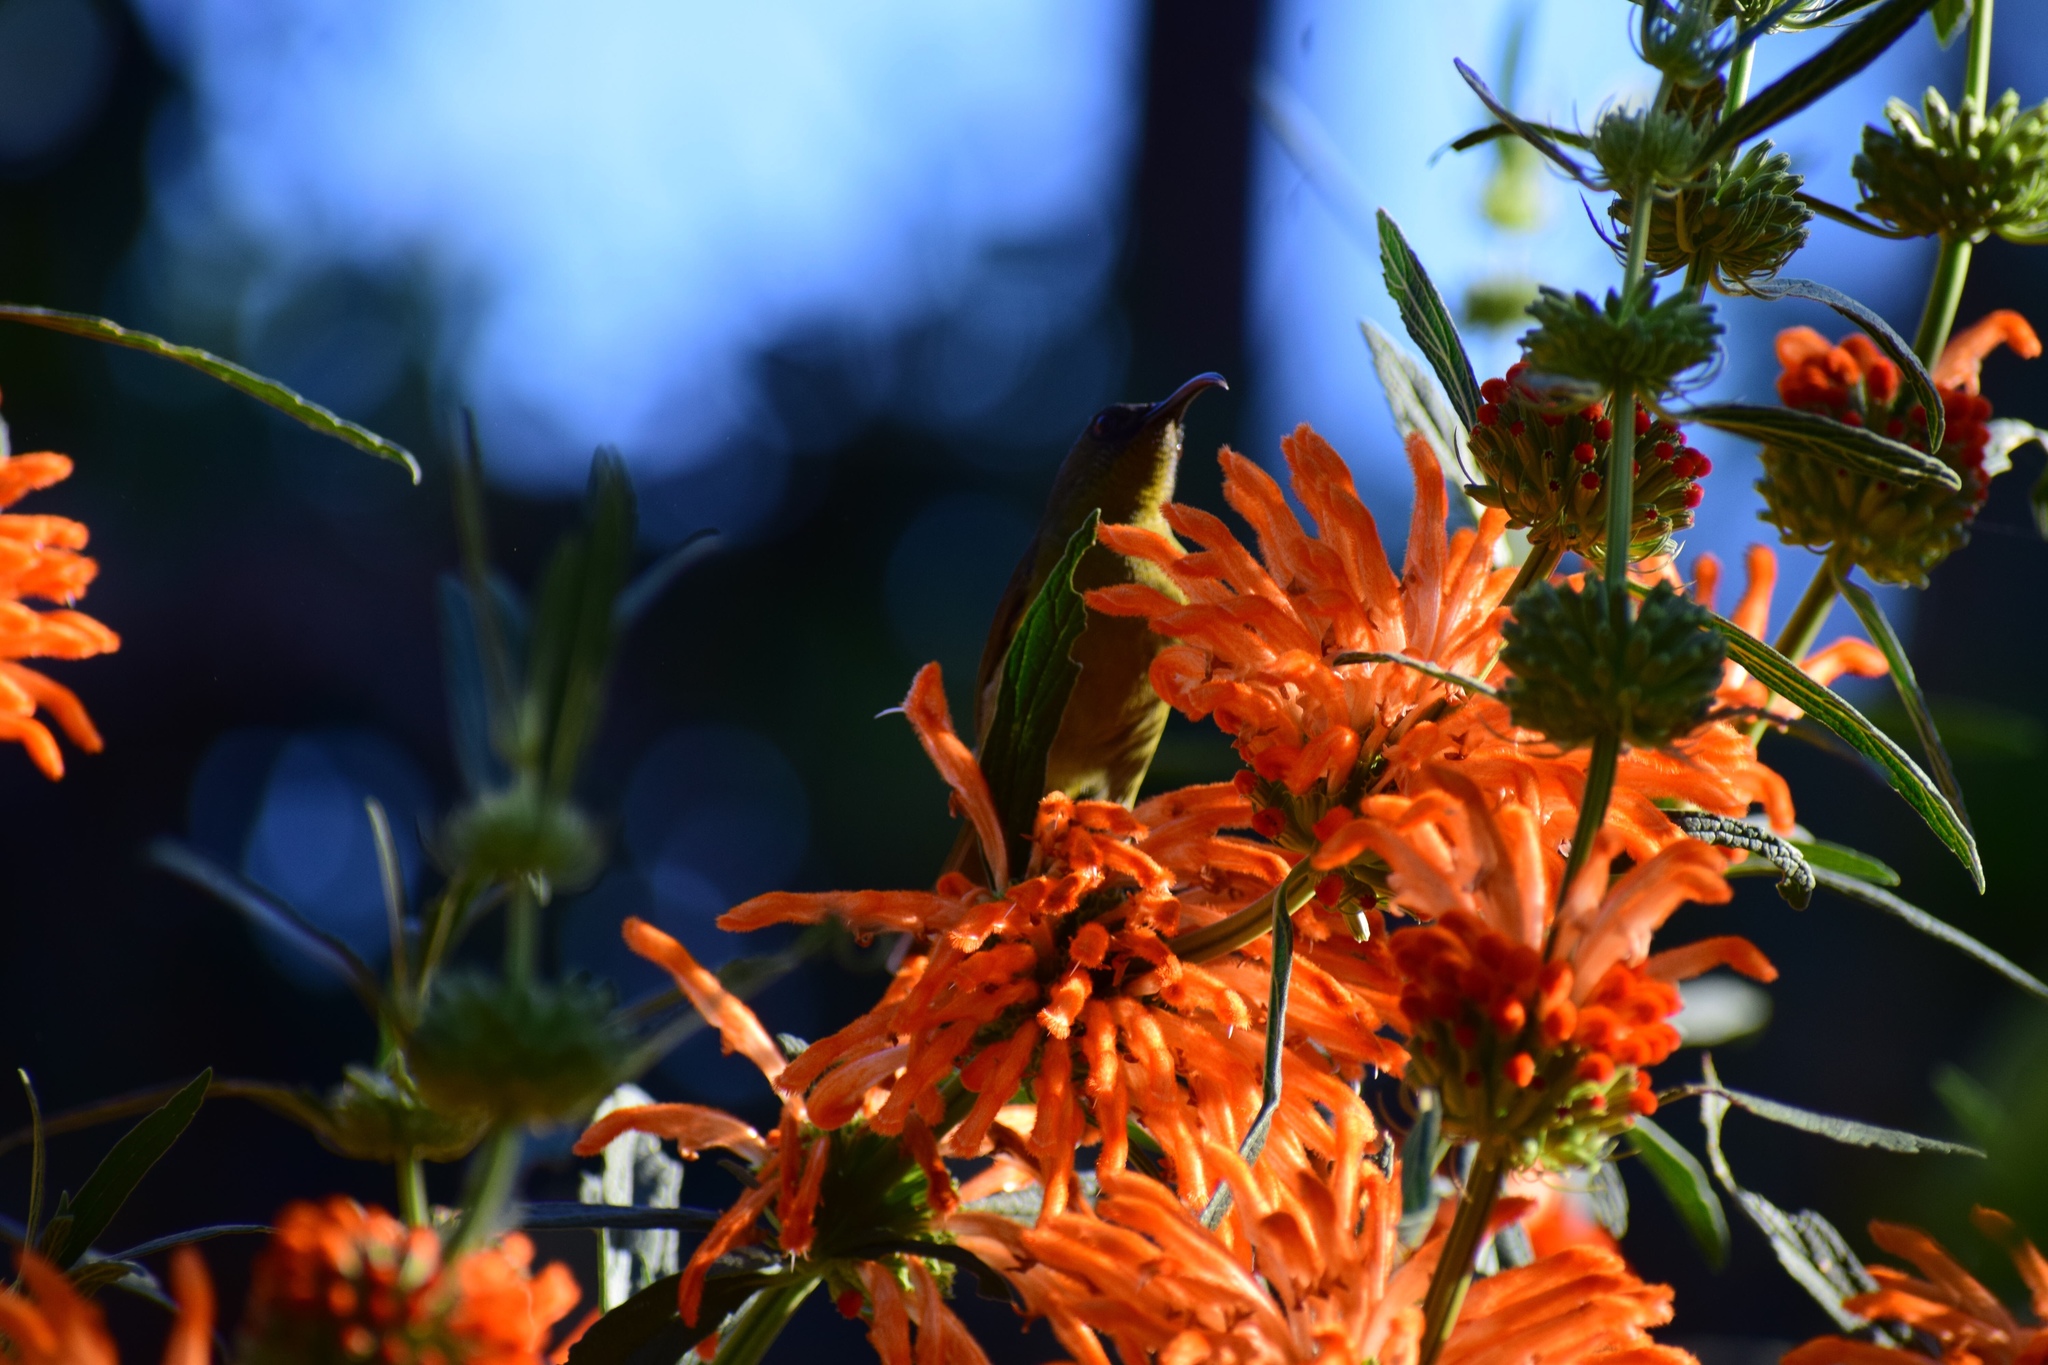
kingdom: Animalia
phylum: Chordata
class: Aves
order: Passeriformes
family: Nectariniidae
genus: Cyanomitra
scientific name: Cyanomitra olivacea
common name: Olive sunbird
